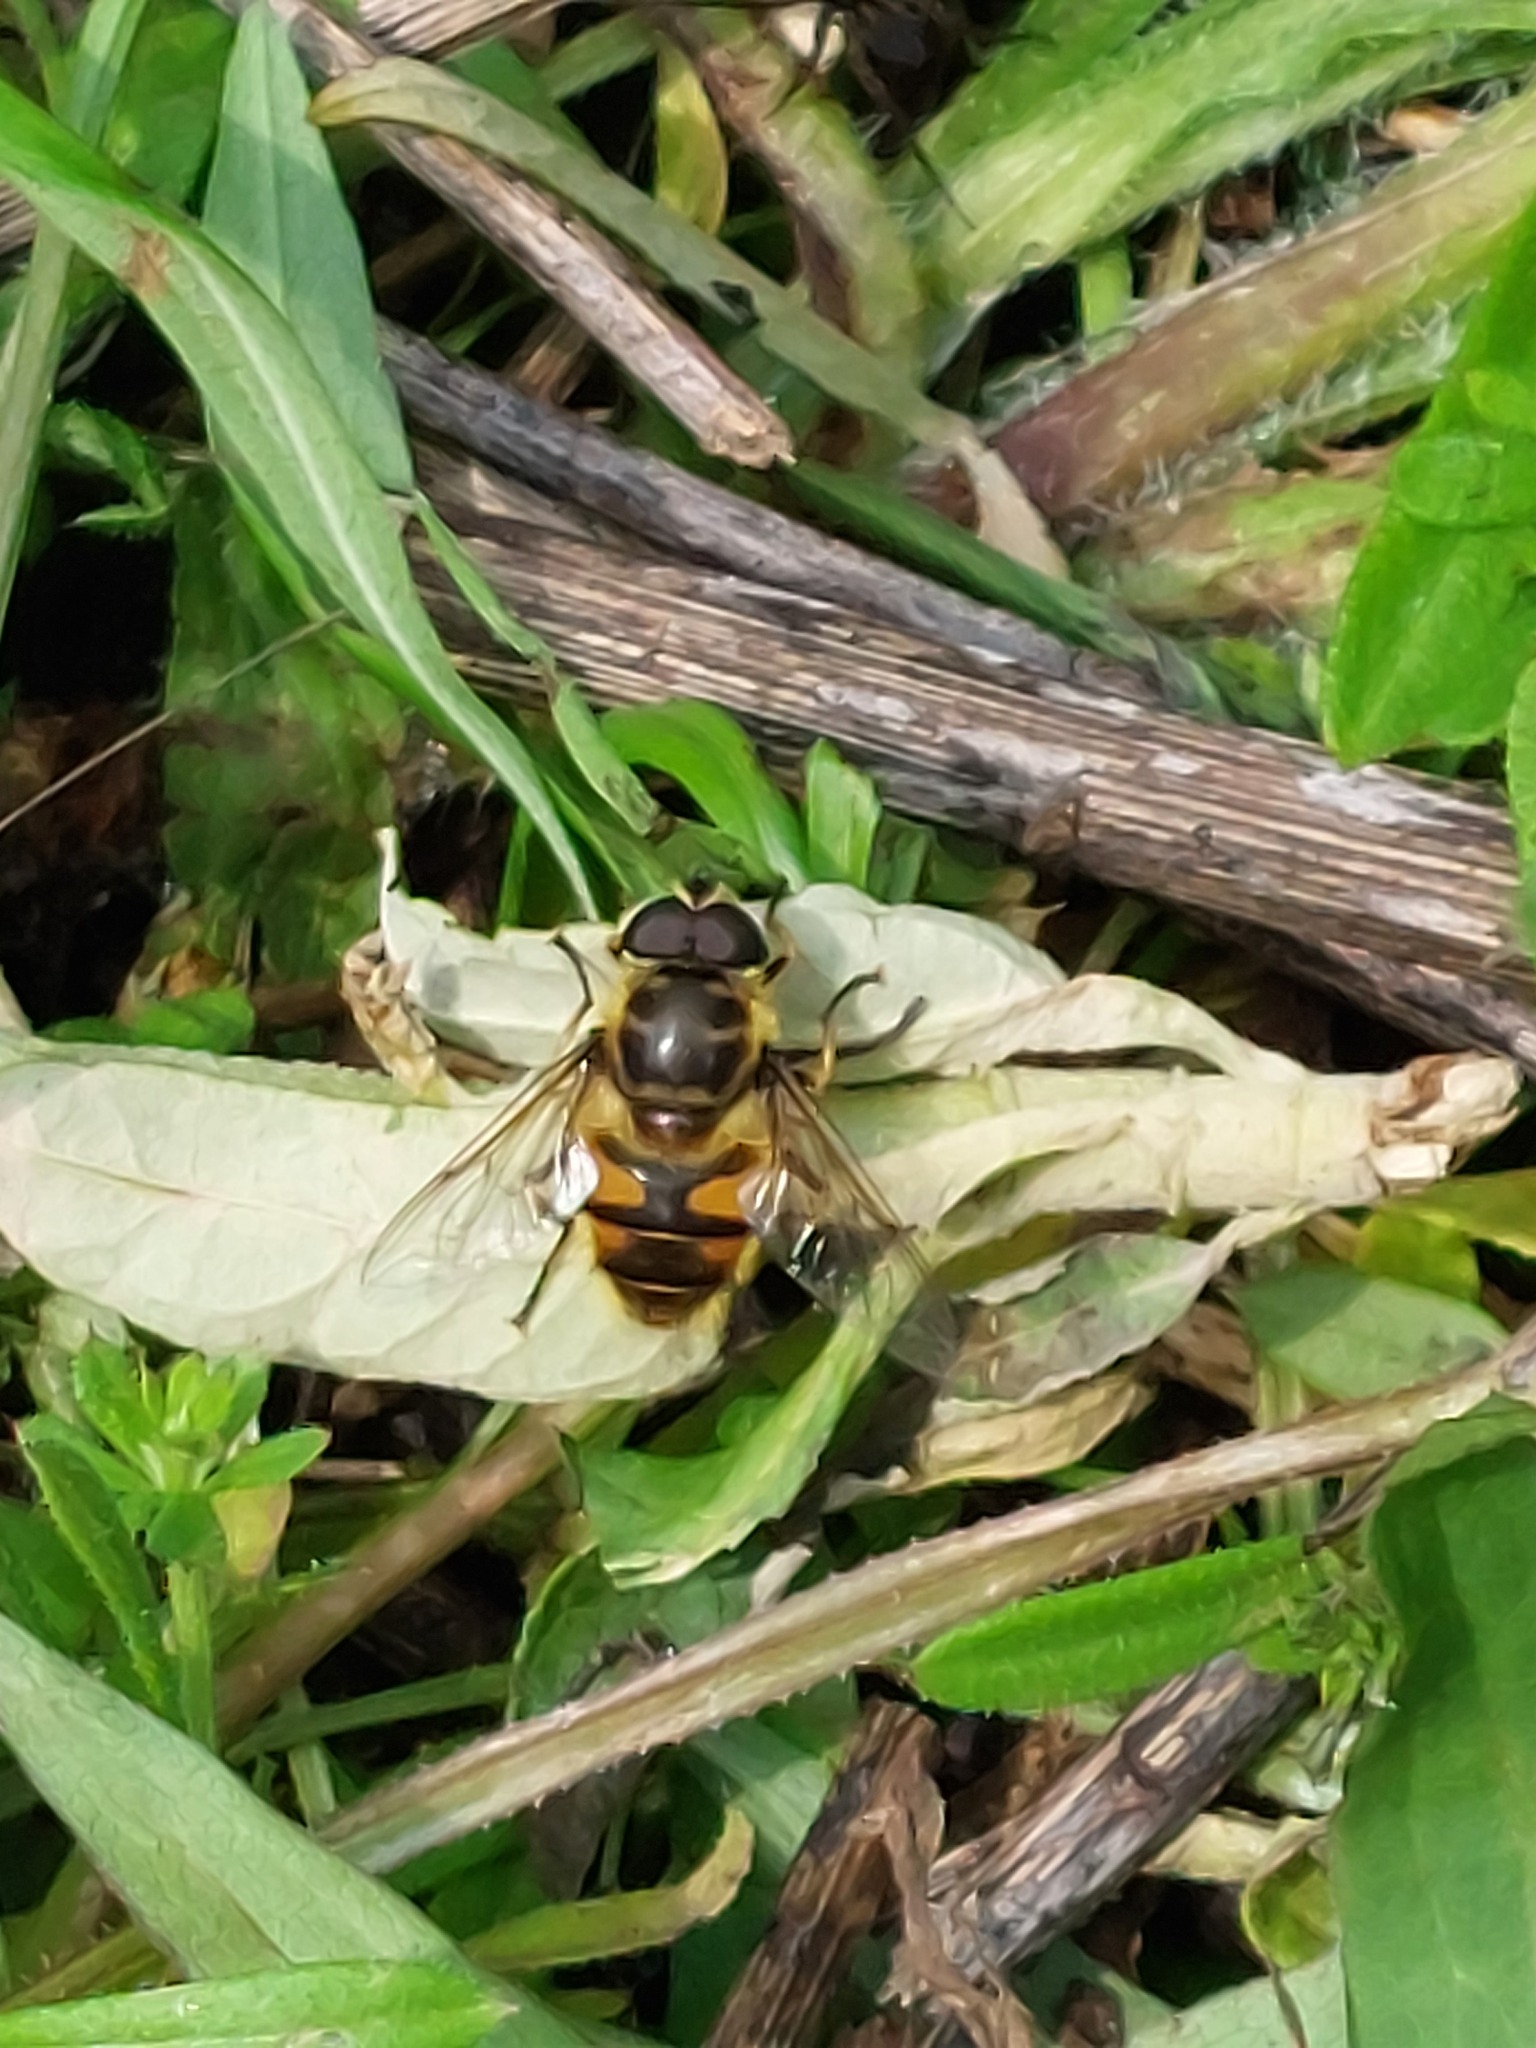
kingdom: Animalia
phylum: Arthropoda
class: Insecta
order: Diptera
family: Syrphidae
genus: Myathropa
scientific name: Myathropa florea
